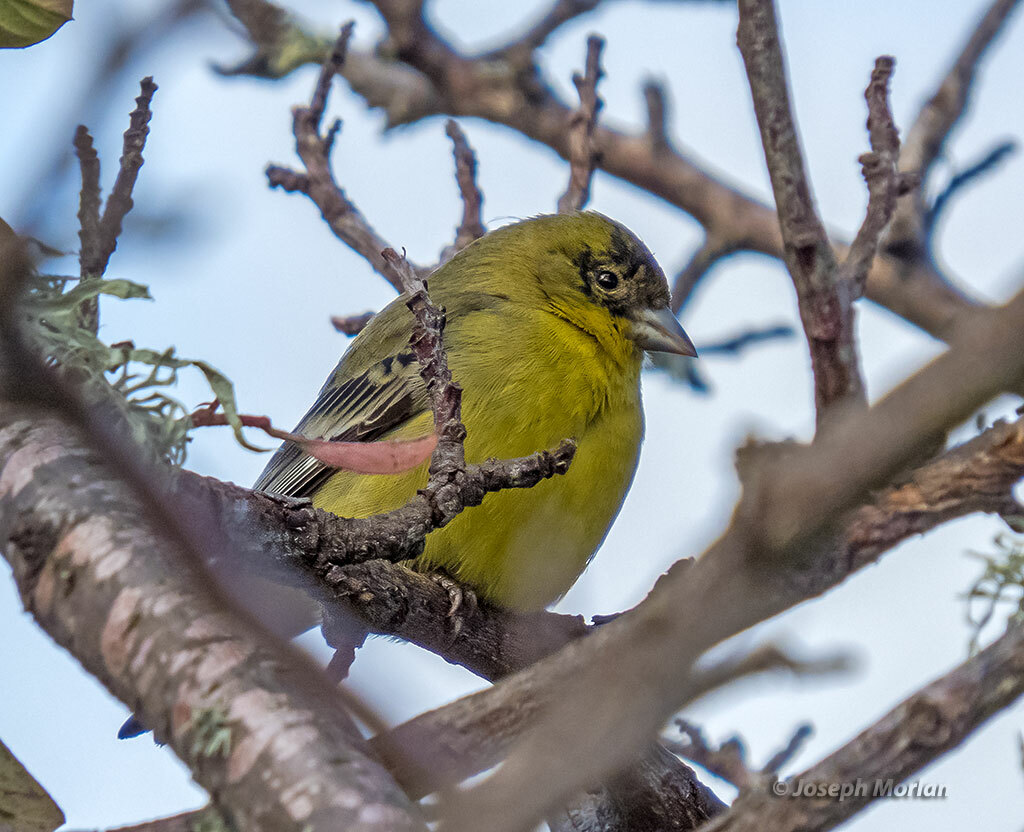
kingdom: Animalia
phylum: Chordata
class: Aves
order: Passeriformes
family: Fringillidae
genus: Spinus
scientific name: Spinus psaltria
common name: Lesser goldfinch
